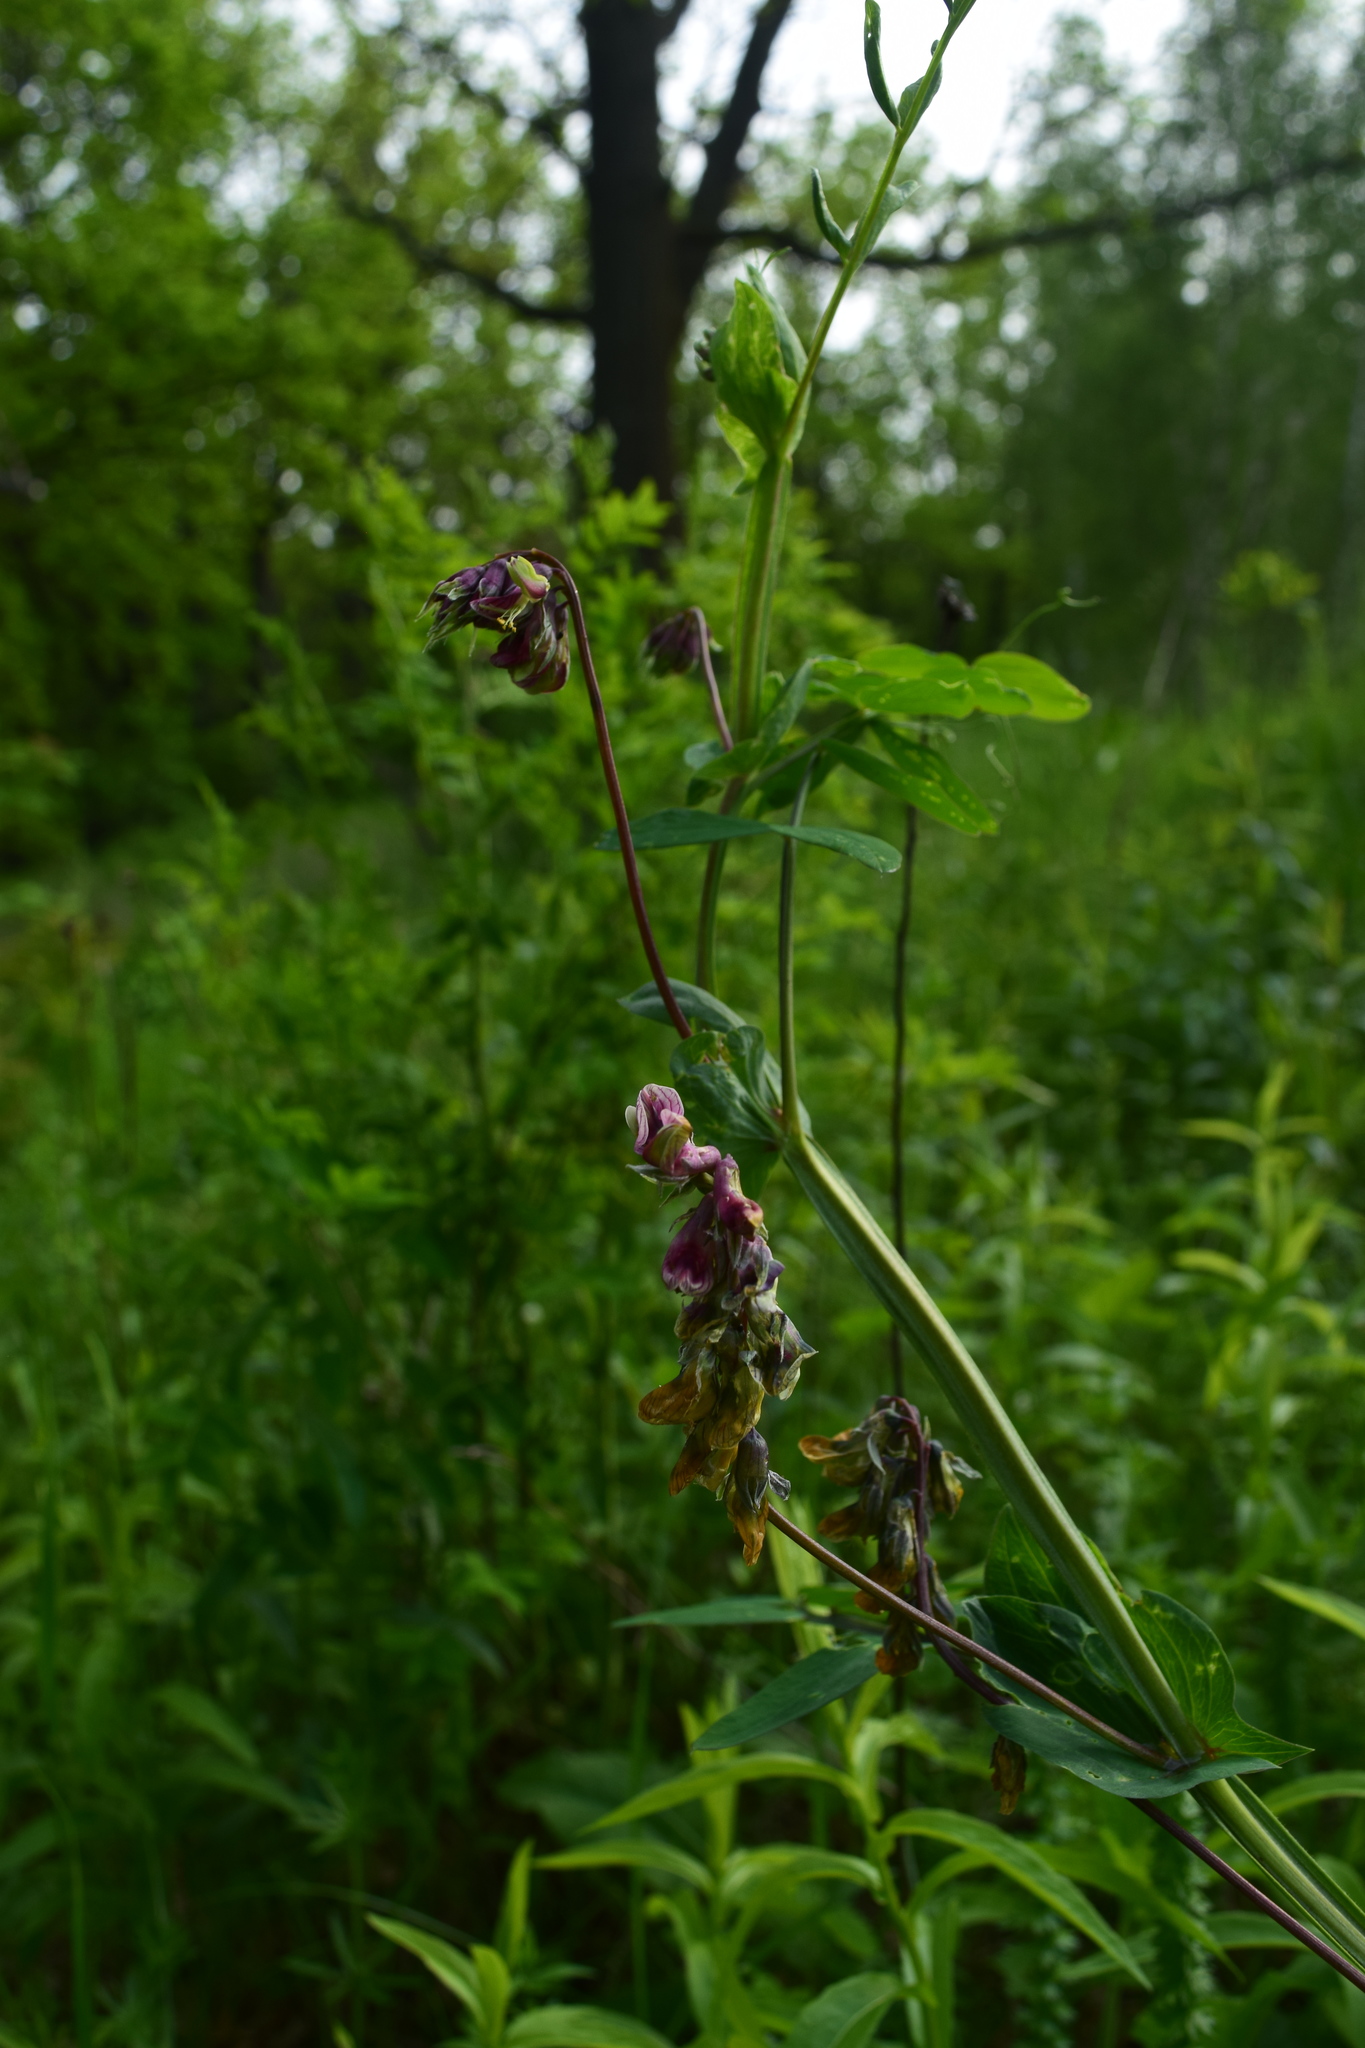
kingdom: Plantae
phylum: Tracheophyta
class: Magnoliopsida
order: Fabales
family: Fabaceae
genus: Lathyrus
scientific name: Lathyrus pisiformis
